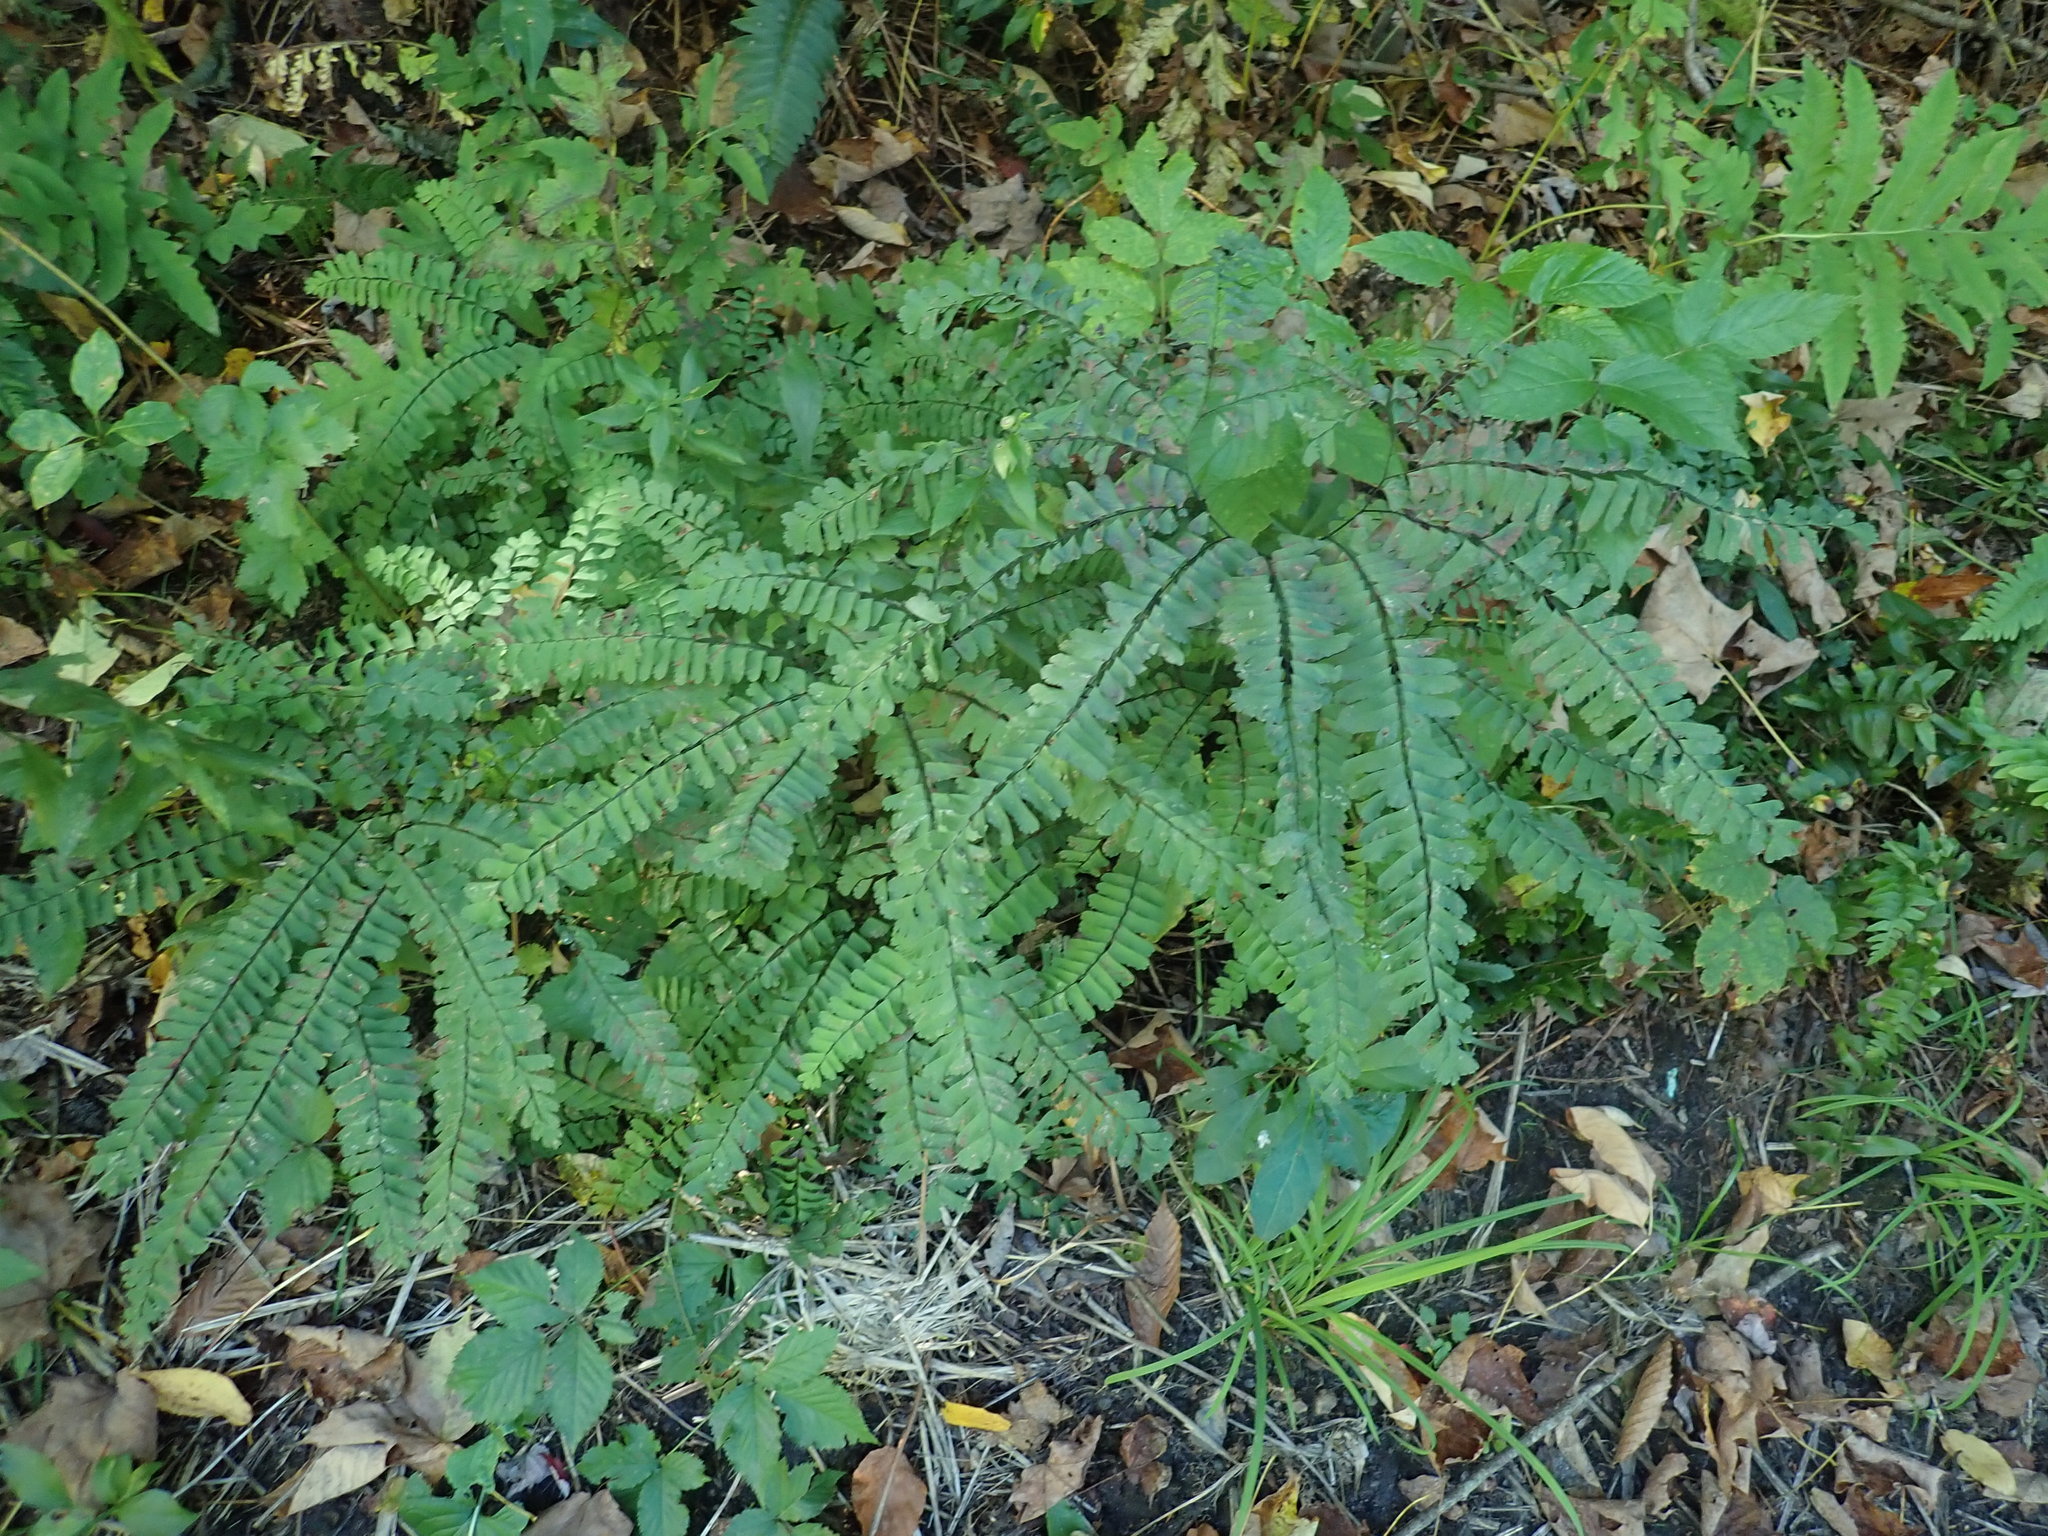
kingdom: Plantae
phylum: Tracheophyta
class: Polypodiopsida
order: Polypodiales
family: Pteridaceae
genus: Adiantum
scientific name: Adiantum pedatum
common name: Five-finger fern
